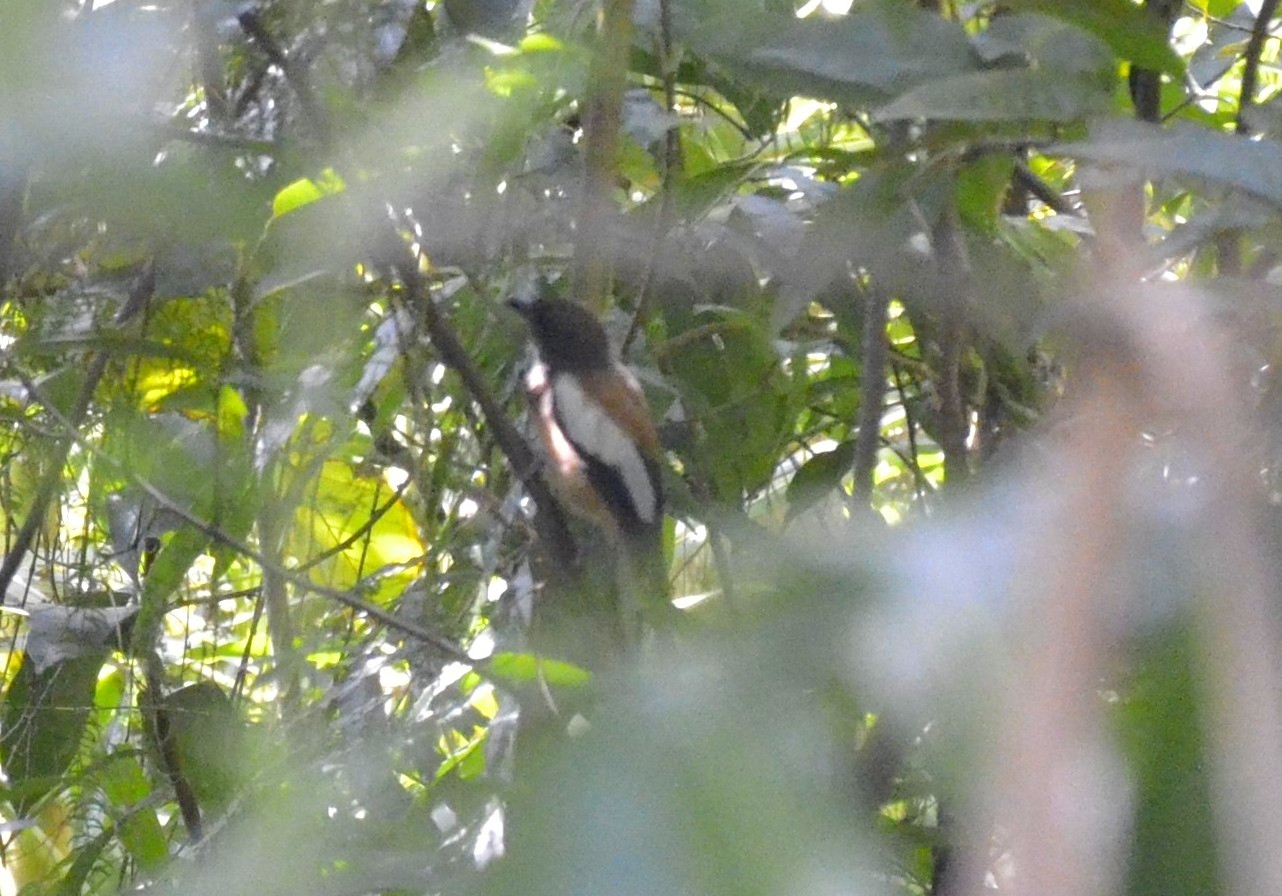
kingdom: Animalia
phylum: Chordata
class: Aves
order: Passeriformes
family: Corvidae
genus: Dendrocitta
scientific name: Dendrocitta vagabunda
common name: Rufous treepie
